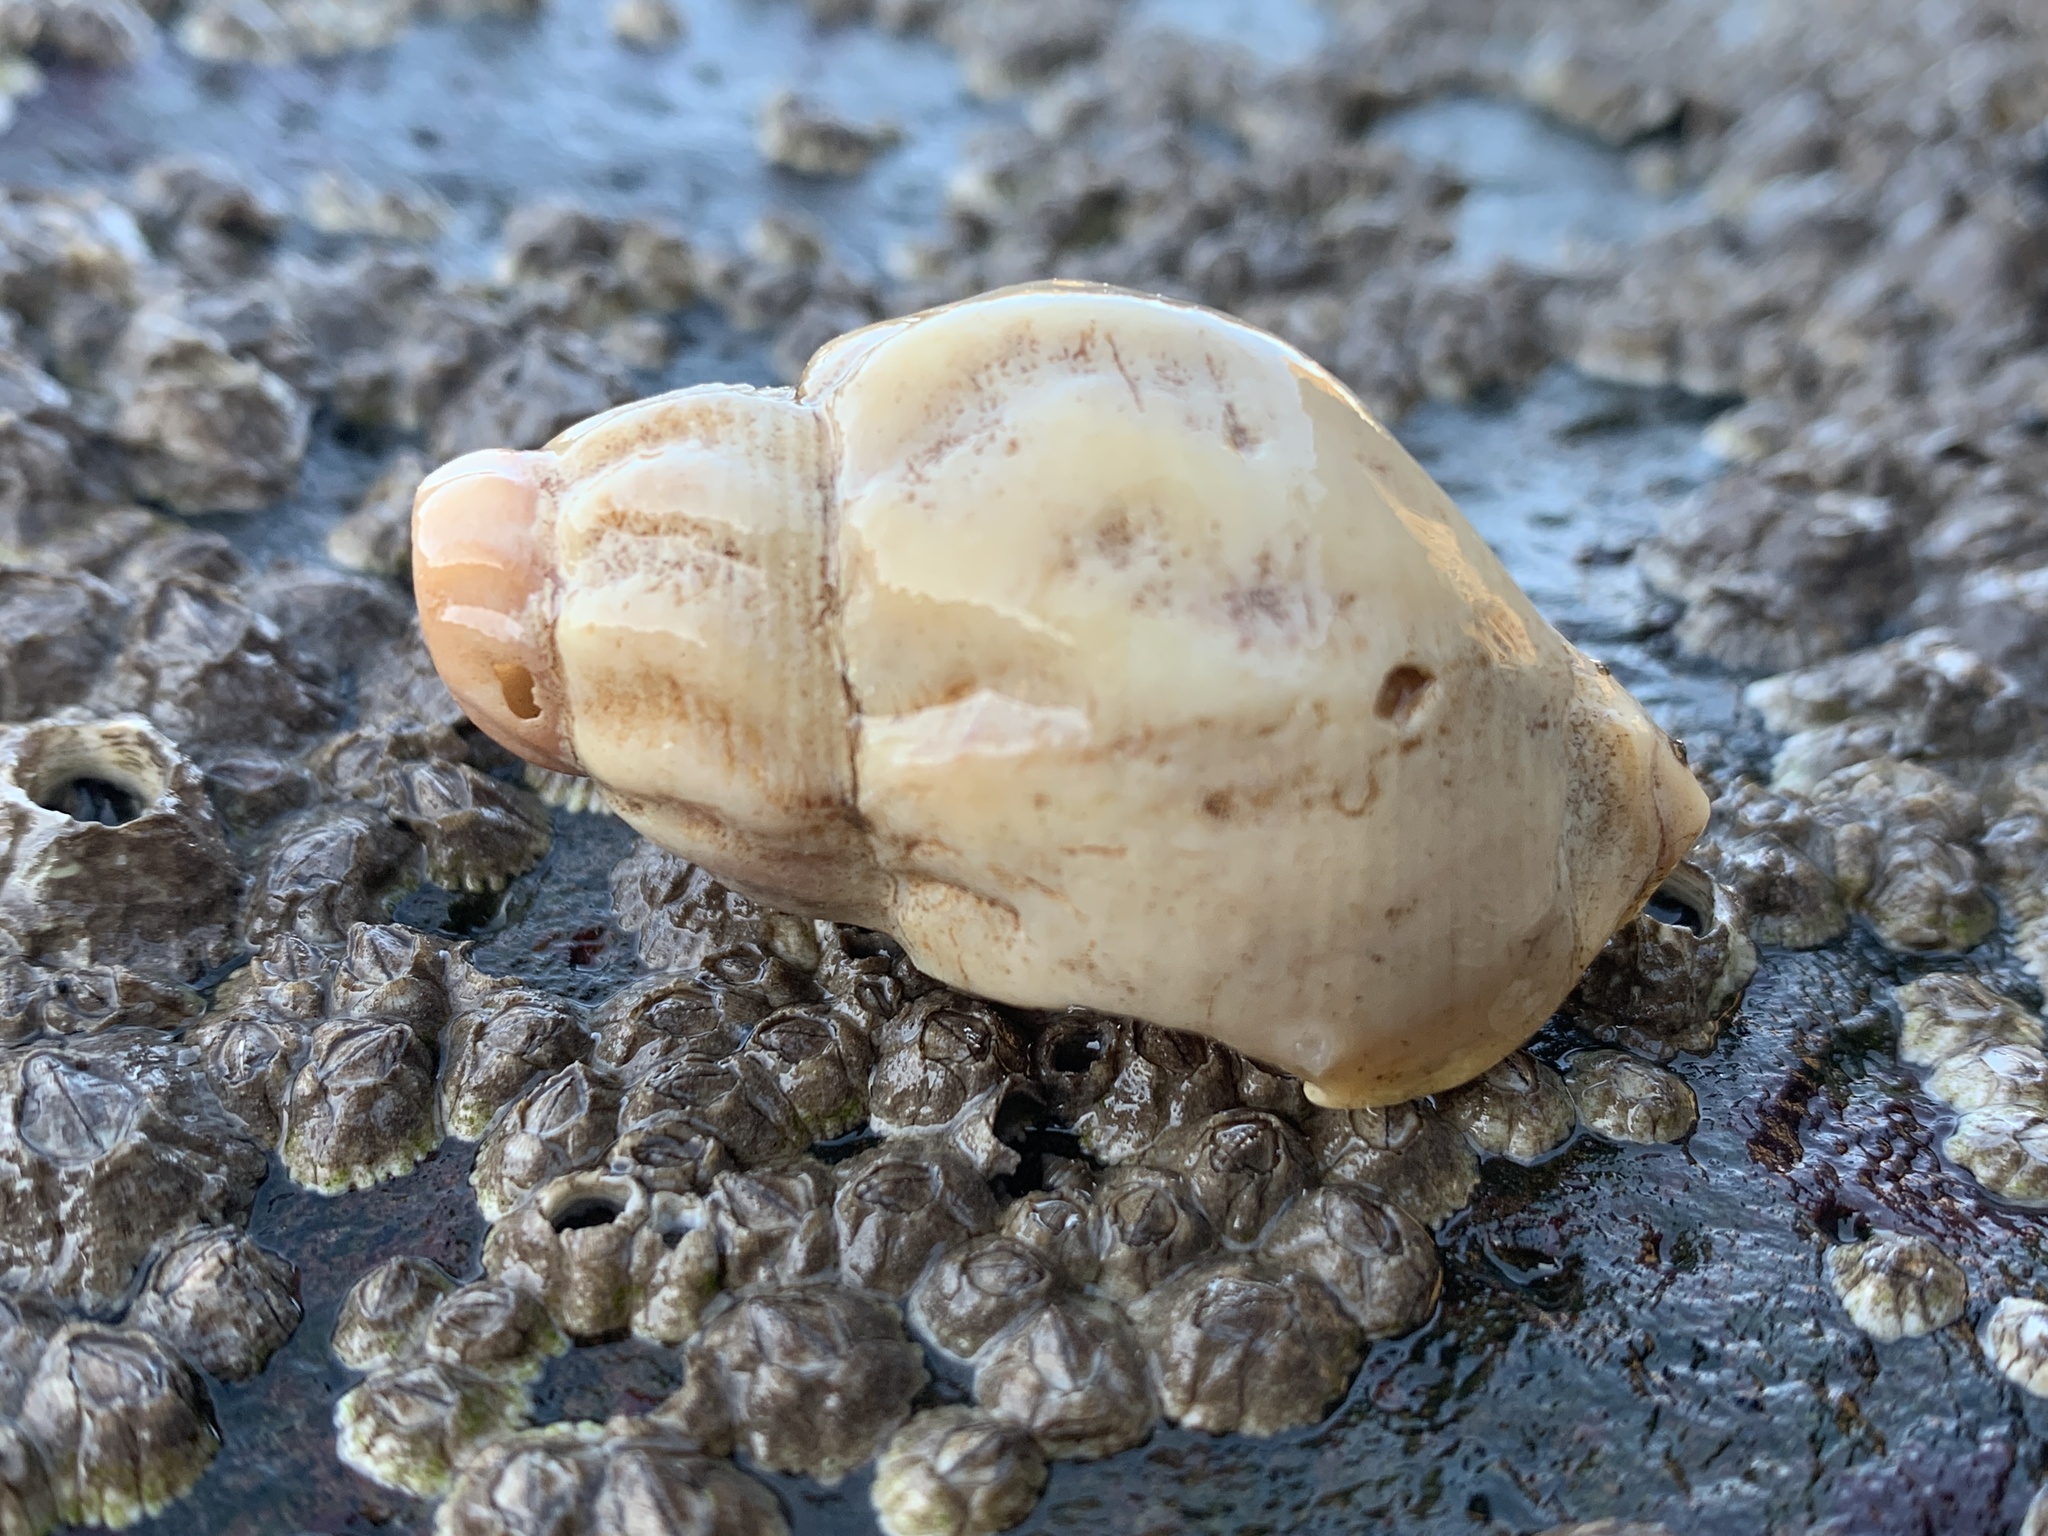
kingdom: Animalia
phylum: Mollusca
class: Gastropoda
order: Neogastropoda
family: Buccinidae
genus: Buccinum
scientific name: Buccinum undatum
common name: Common whelk
